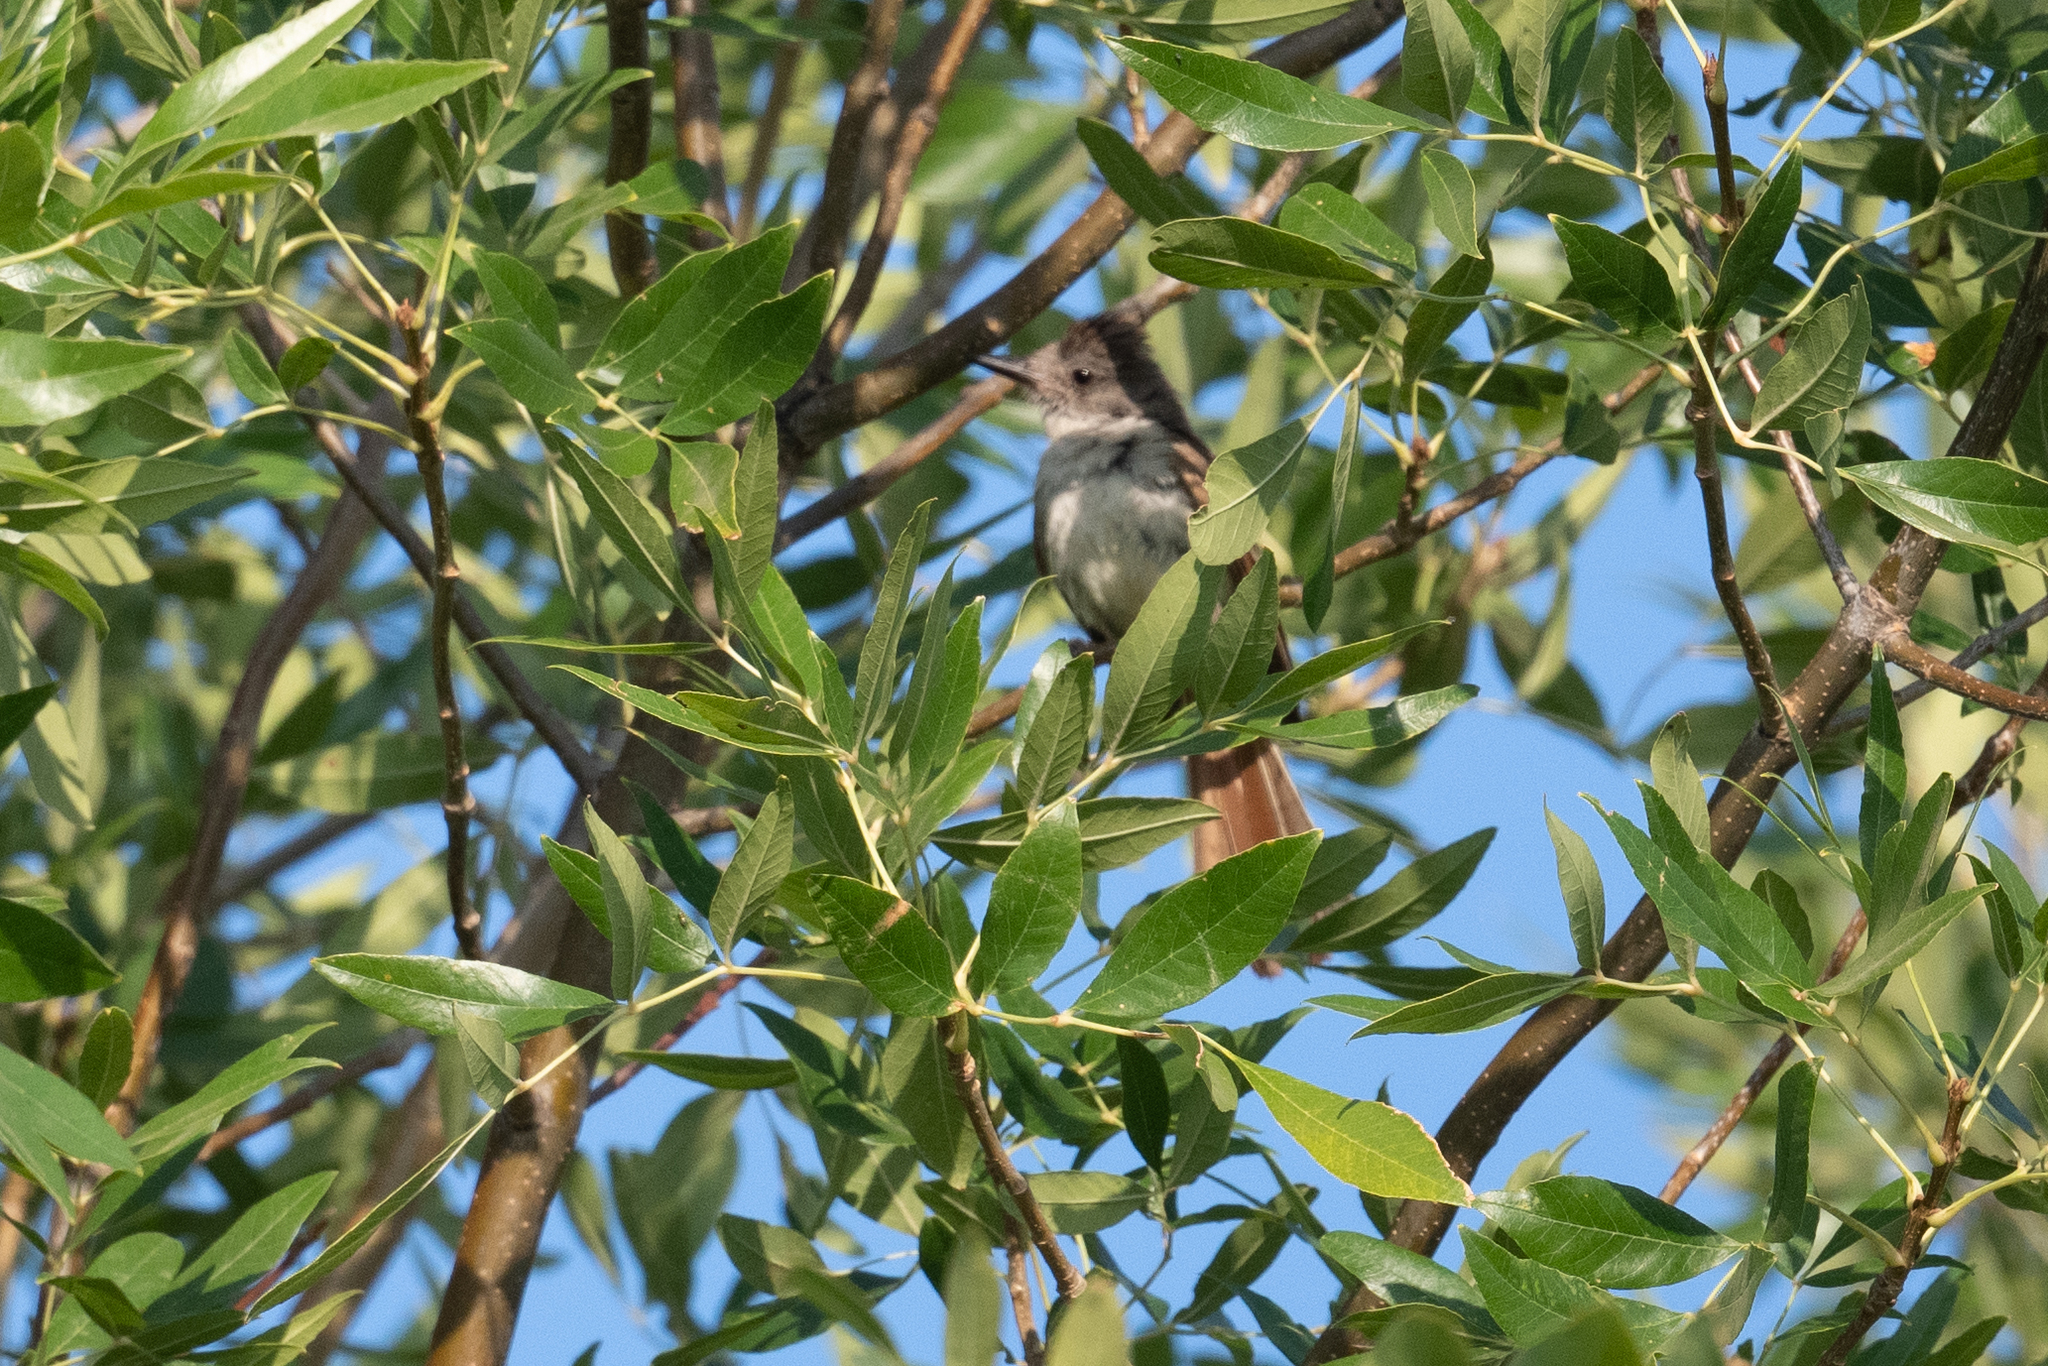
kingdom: Animalia
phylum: Chordata
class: Aves
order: Passeriformes
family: Tyrannidae
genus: Myiarchus
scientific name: Myiarchus cinerascens
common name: Ash-throated flycatcher
